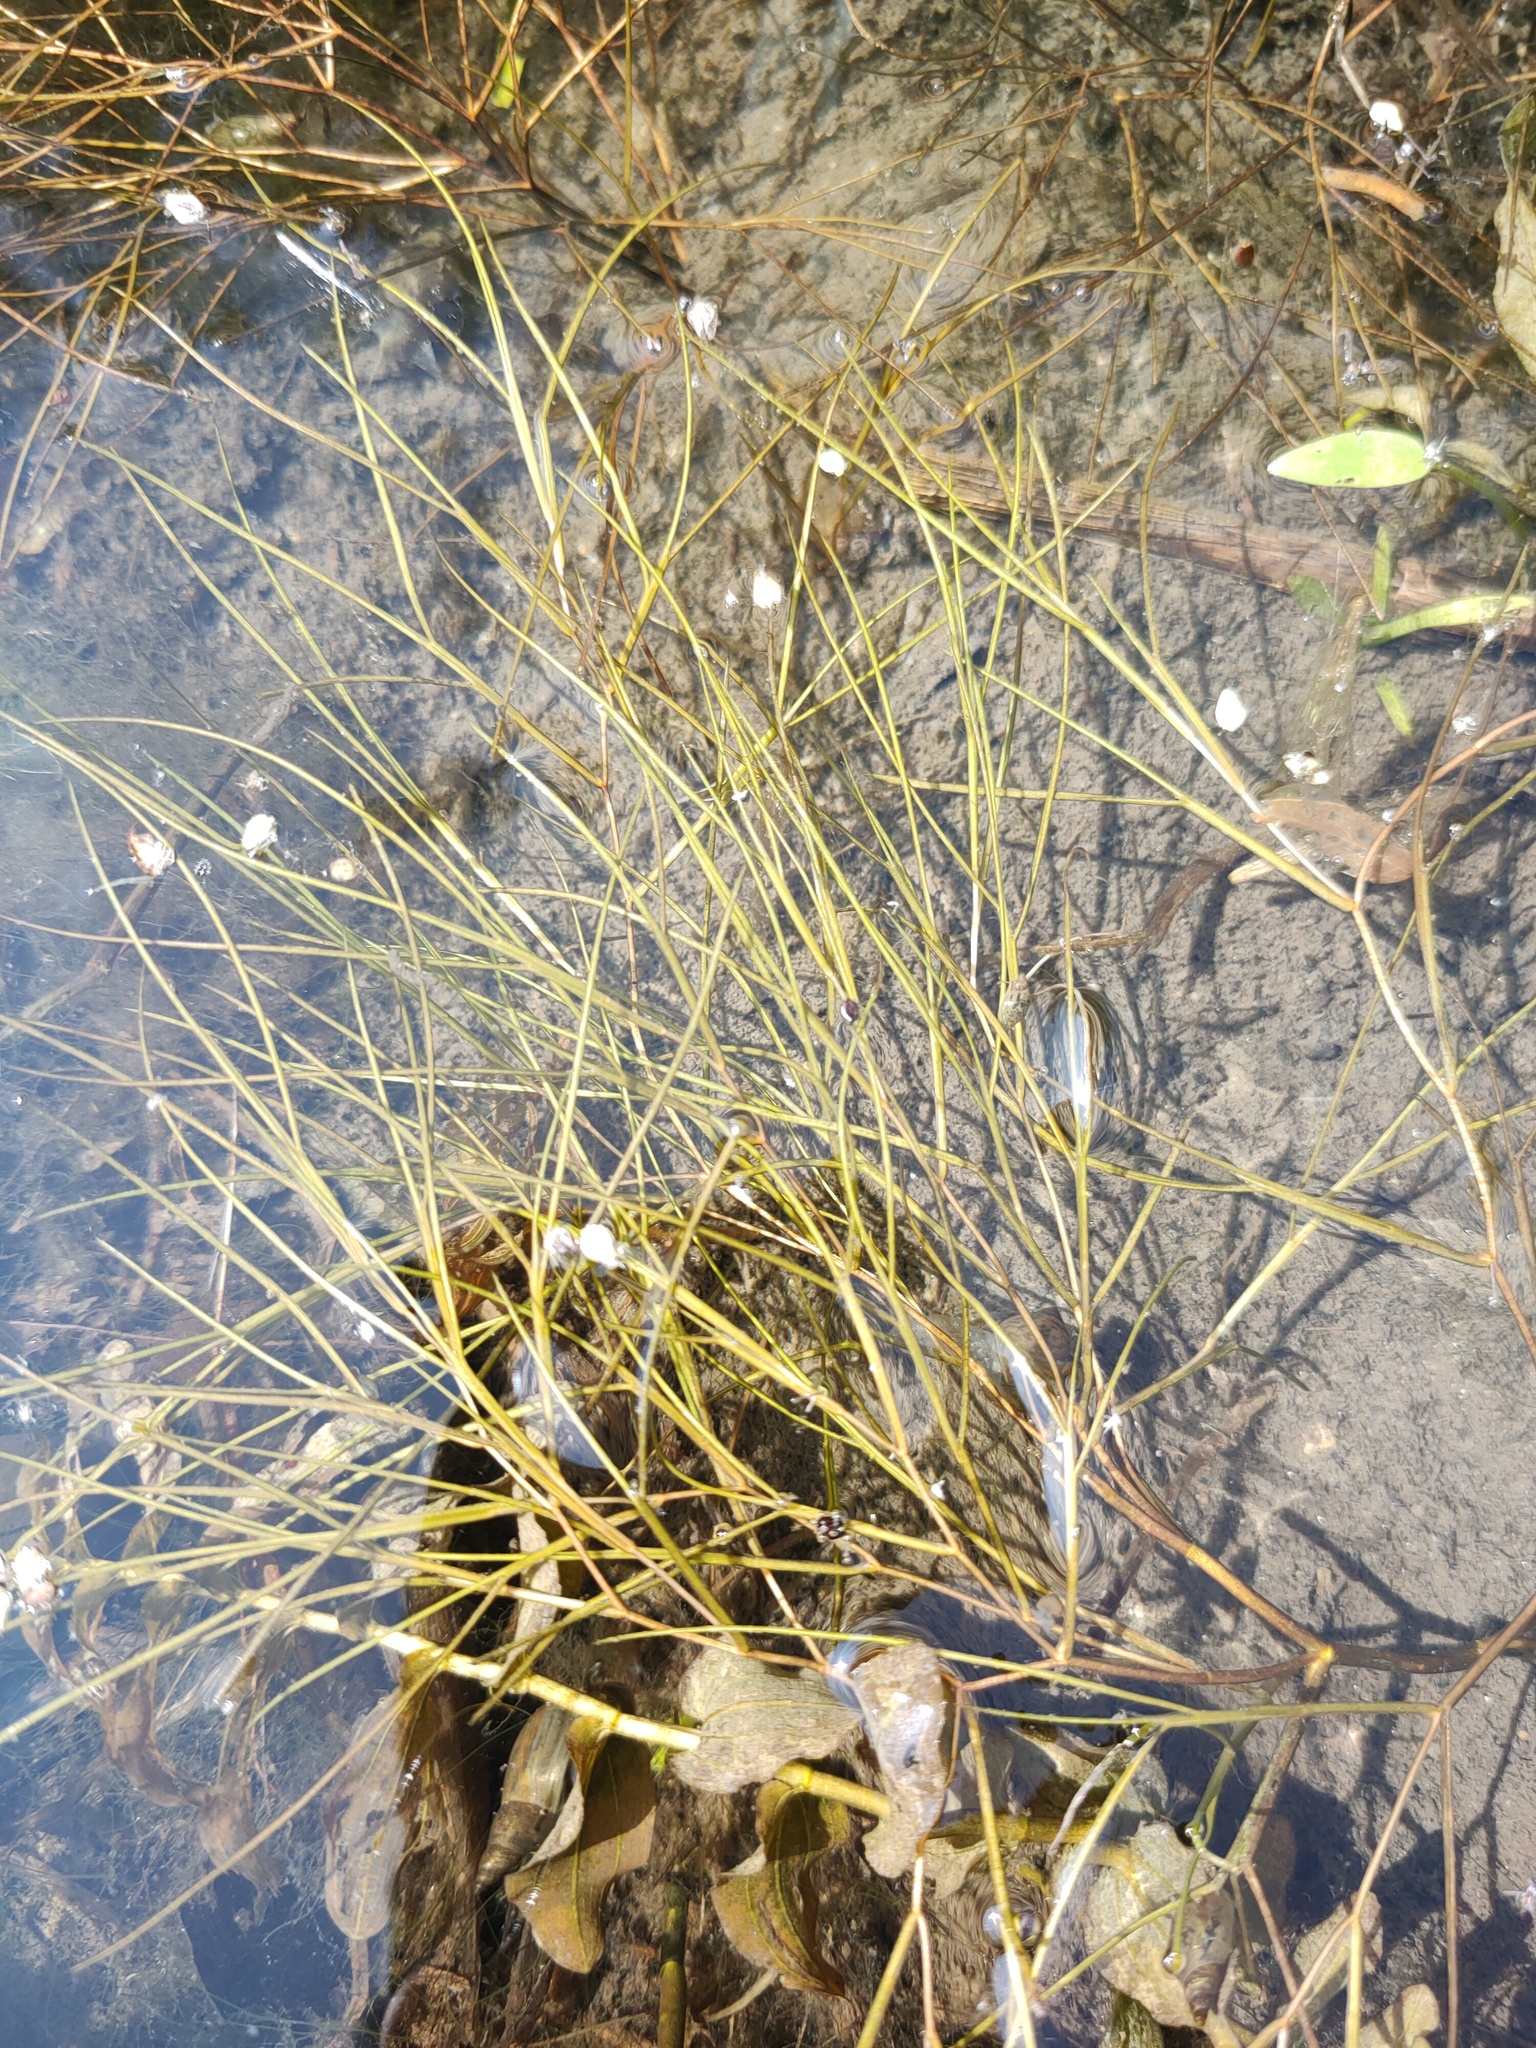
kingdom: Plantae
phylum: Tracheophyta
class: Liliopsida
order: Alismatales
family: Potamogetonaceae
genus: Stuckenia
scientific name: Stuckenia pectinata
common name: Sago pondweed
